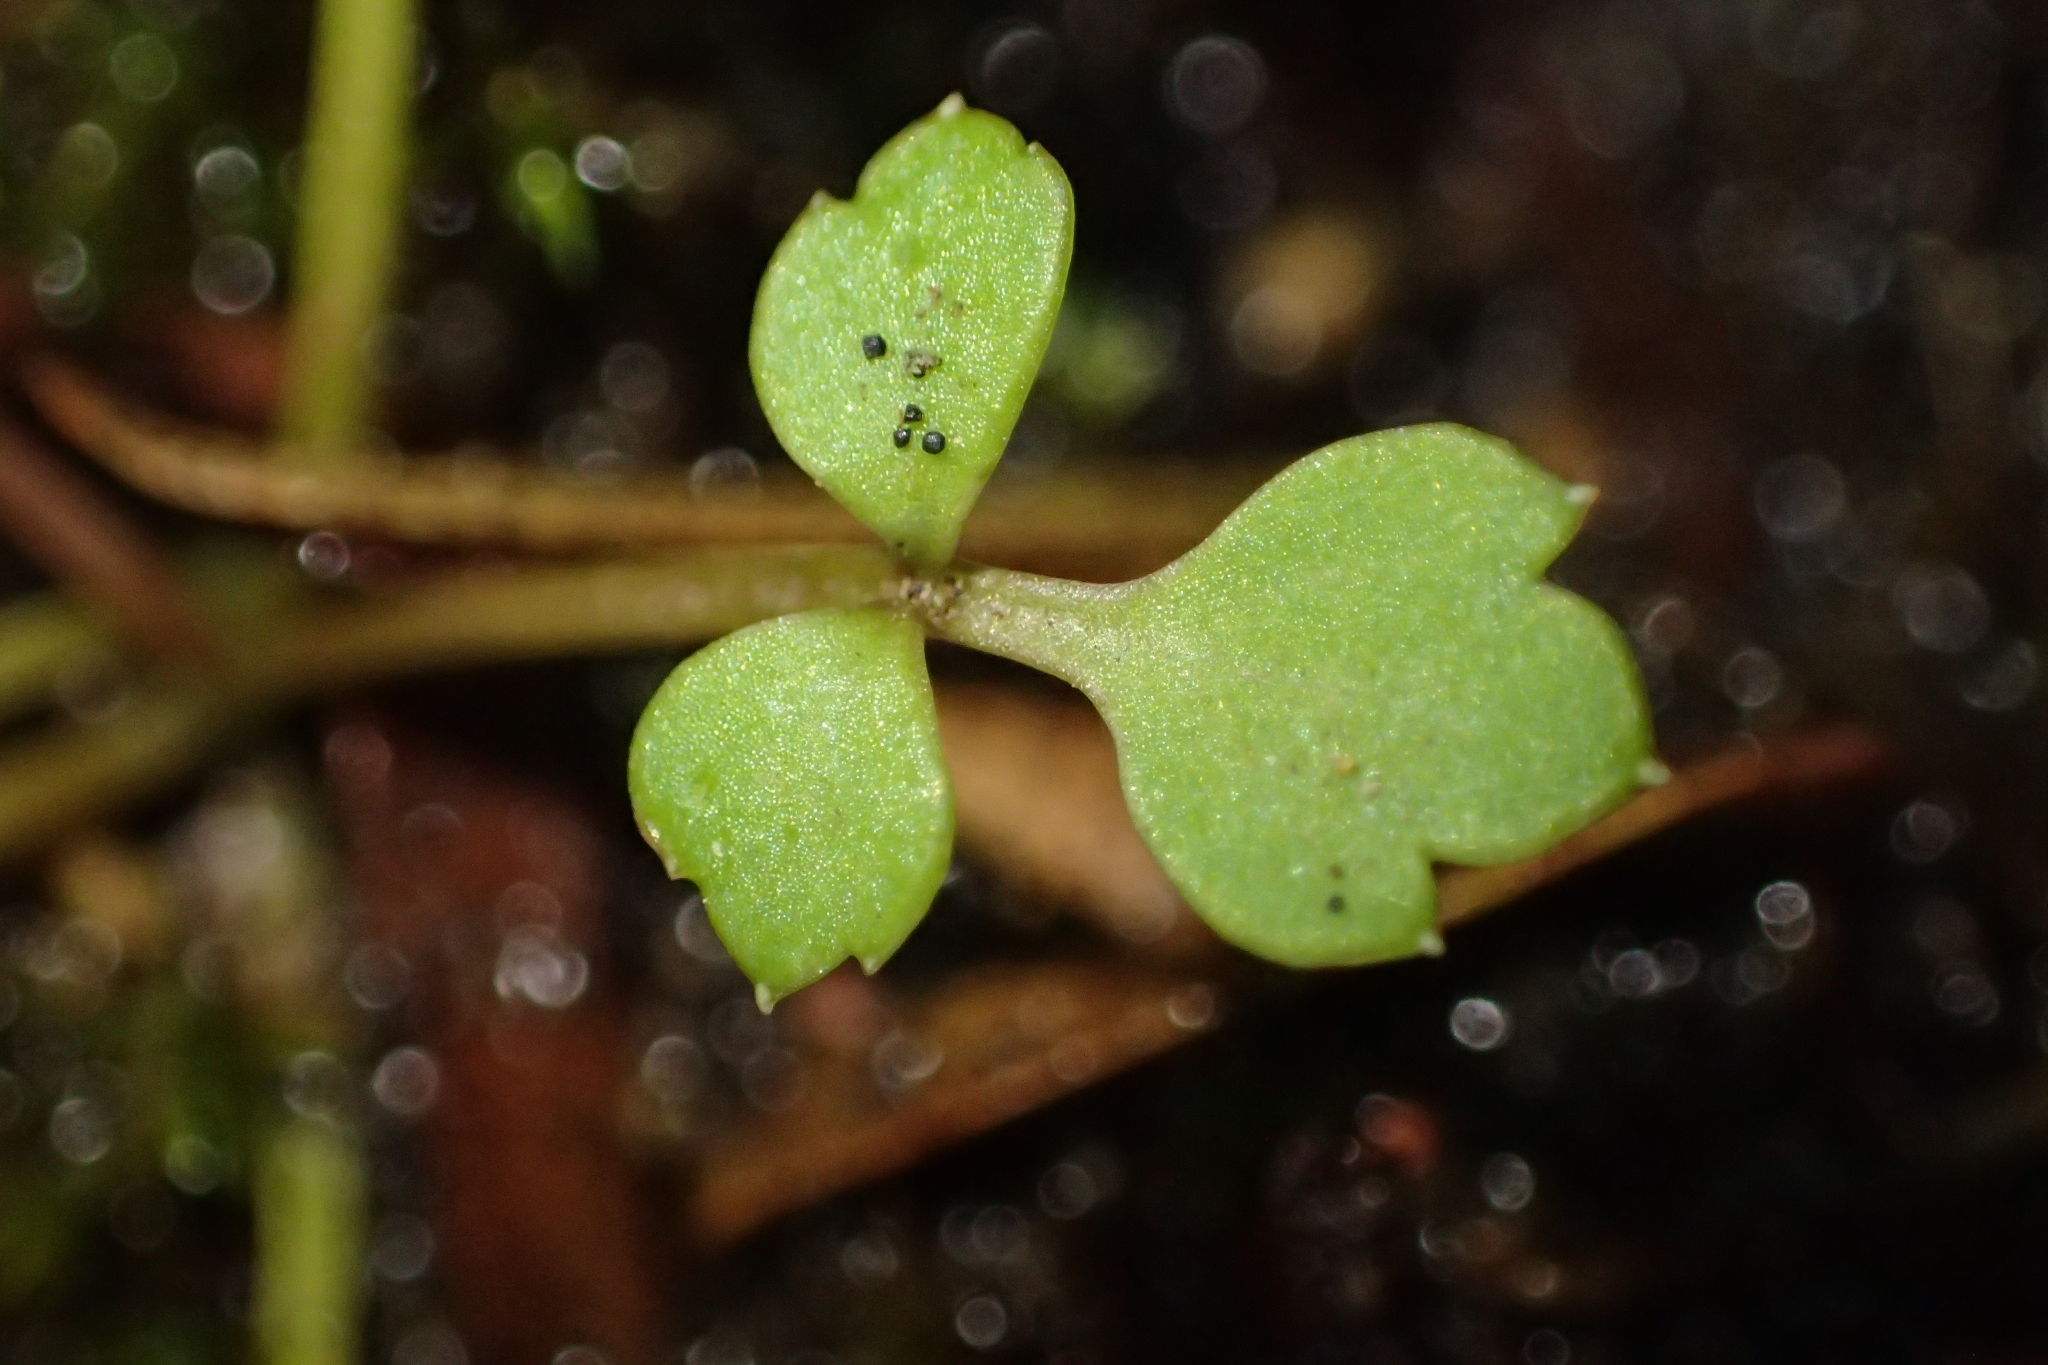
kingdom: Plantae
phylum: Tracheophyta
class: Magnoliopsida
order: Ranunculales
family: Ranunculaceae
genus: Ranunculus
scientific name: Ranunculus acaulis
